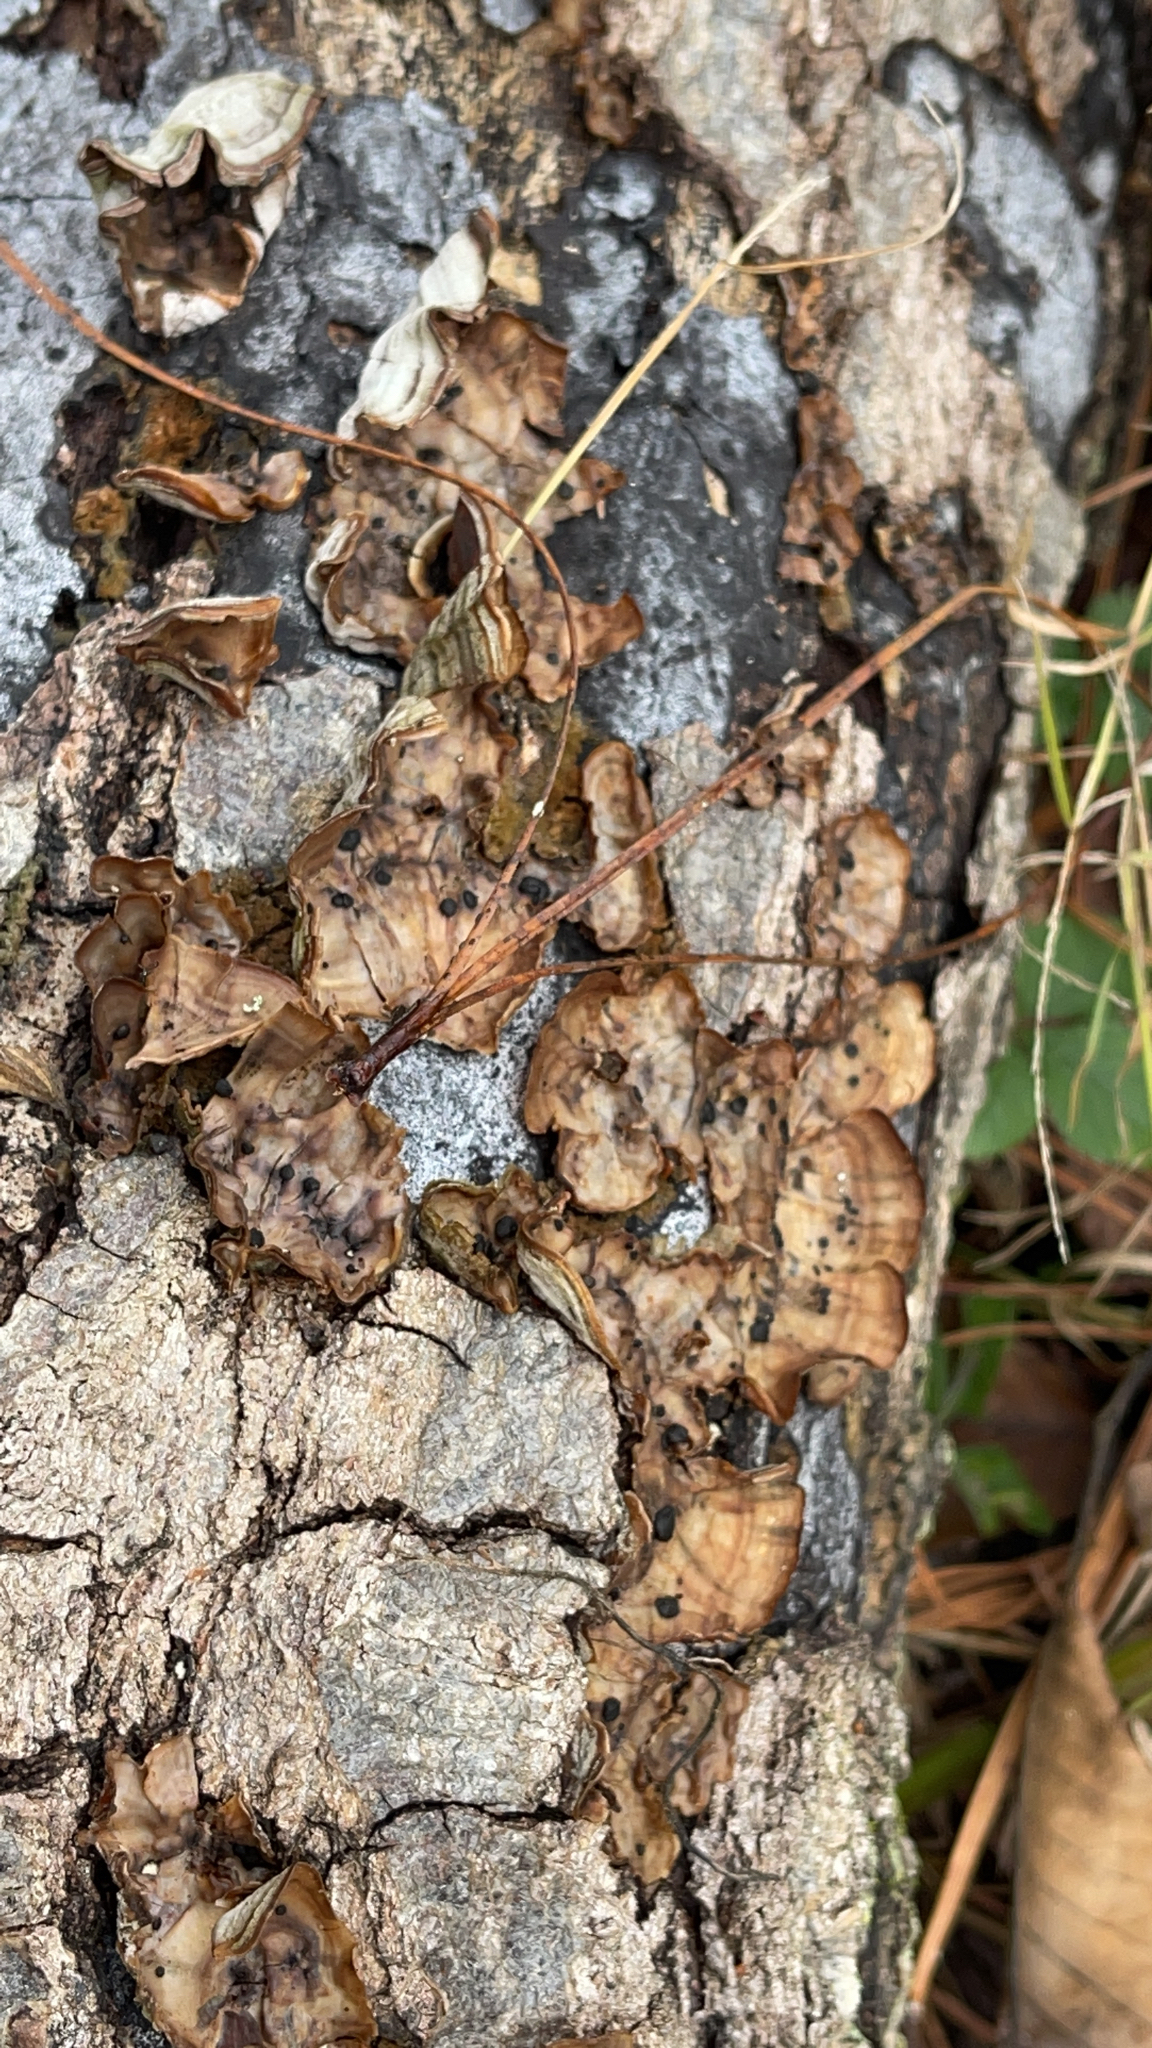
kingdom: Fungi
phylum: Basidiomycota
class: Agaricomycetes
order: Russulales
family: Stereaceae
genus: Stereum
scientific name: Stereum lobatum
